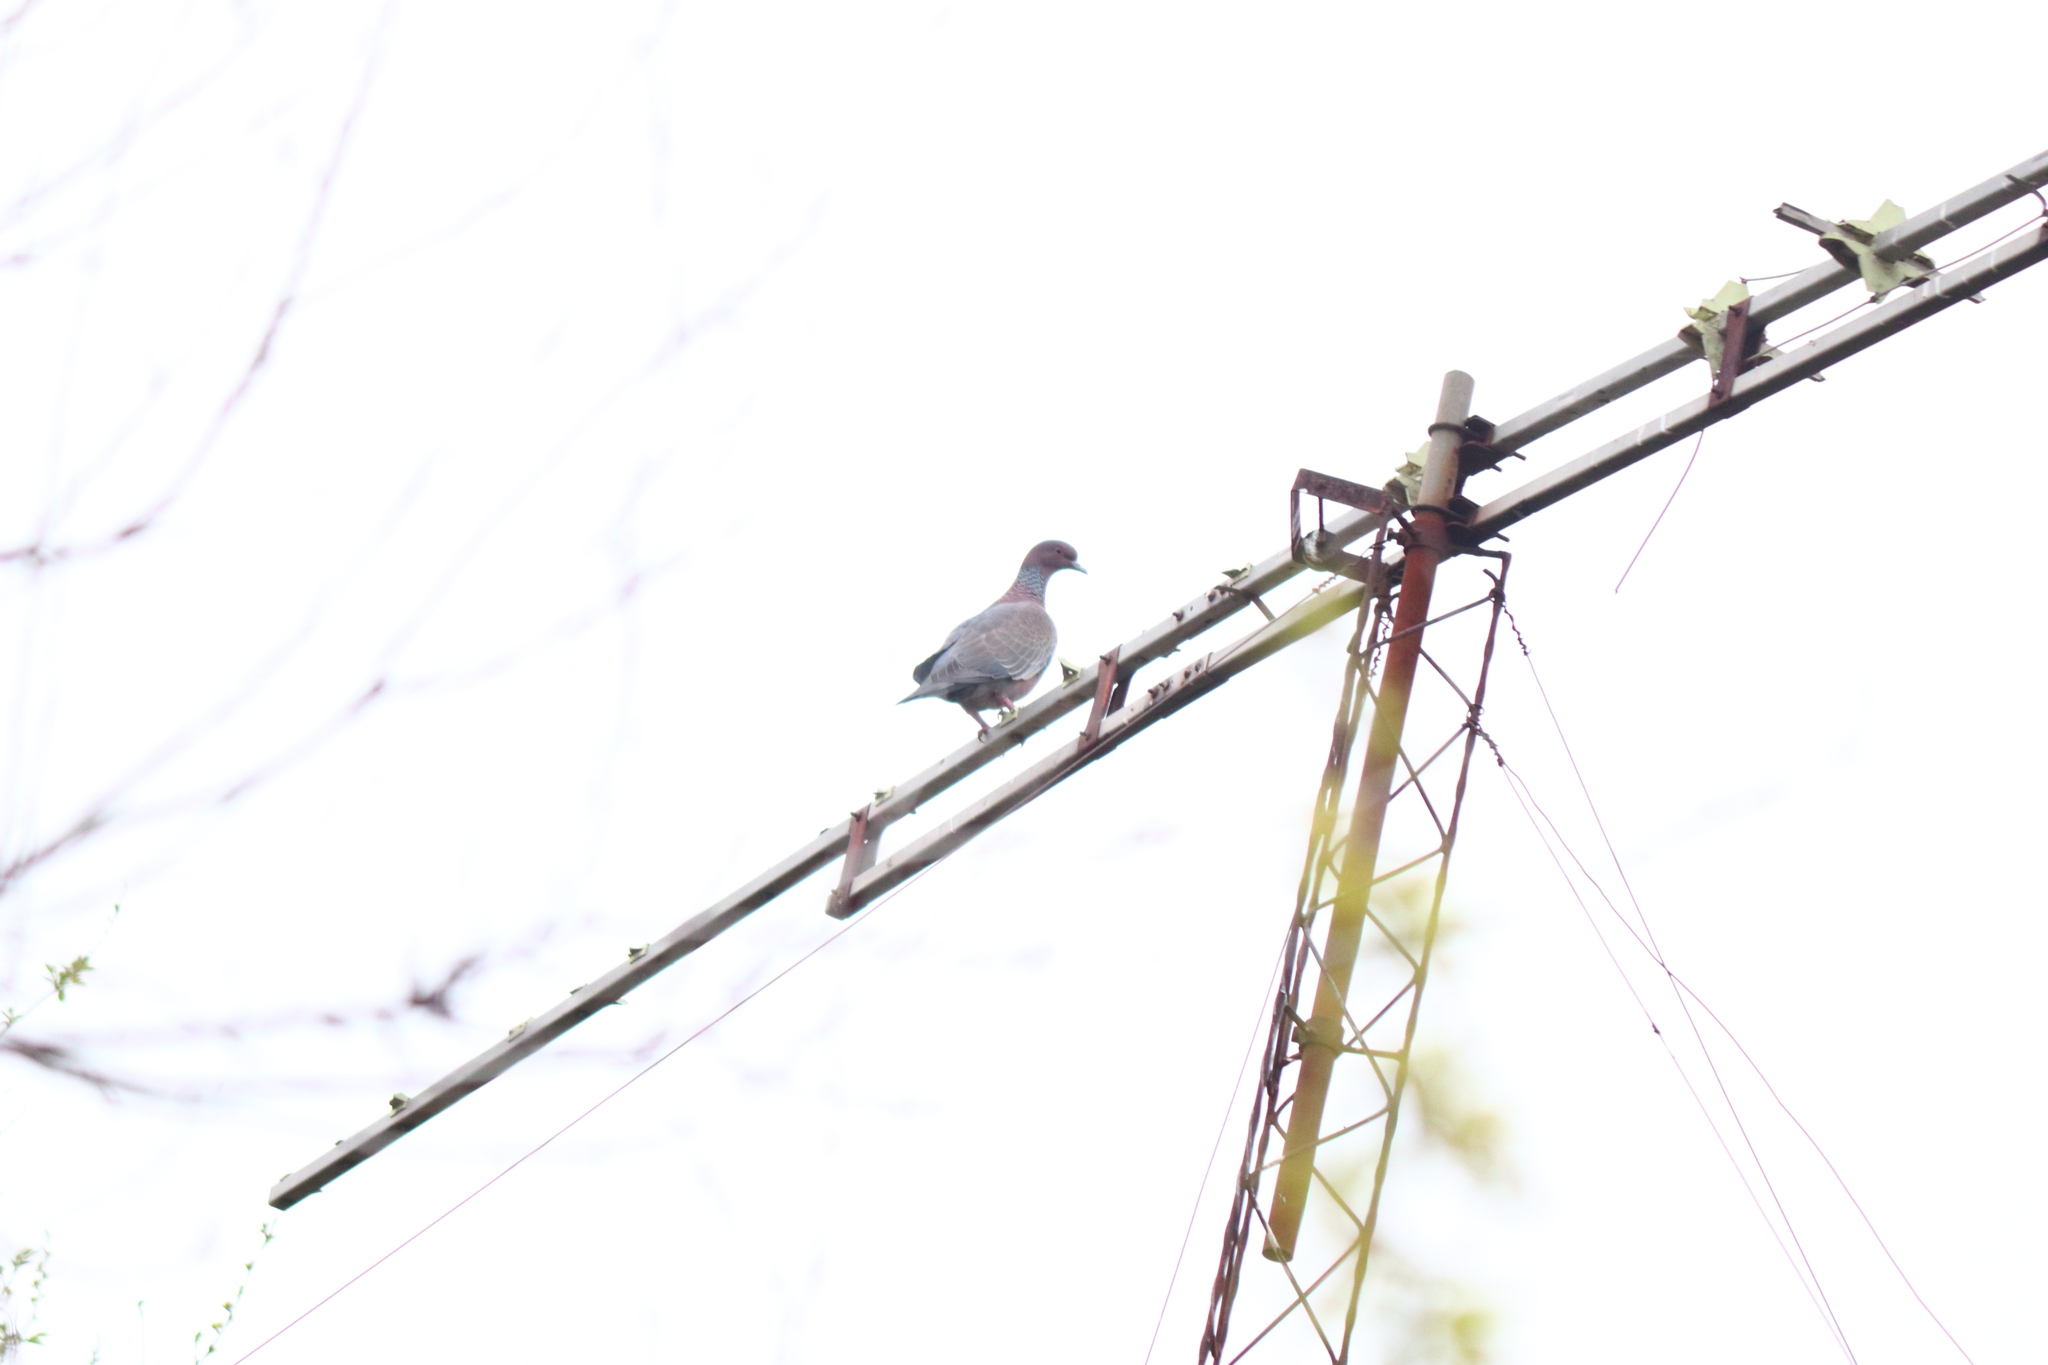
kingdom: Animalia
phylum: Chordata
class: Aves
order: Columbiformes
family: Columbidae
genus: Patagioenas
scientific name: Patagioenas picazuro
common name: Picazuro pigeon
